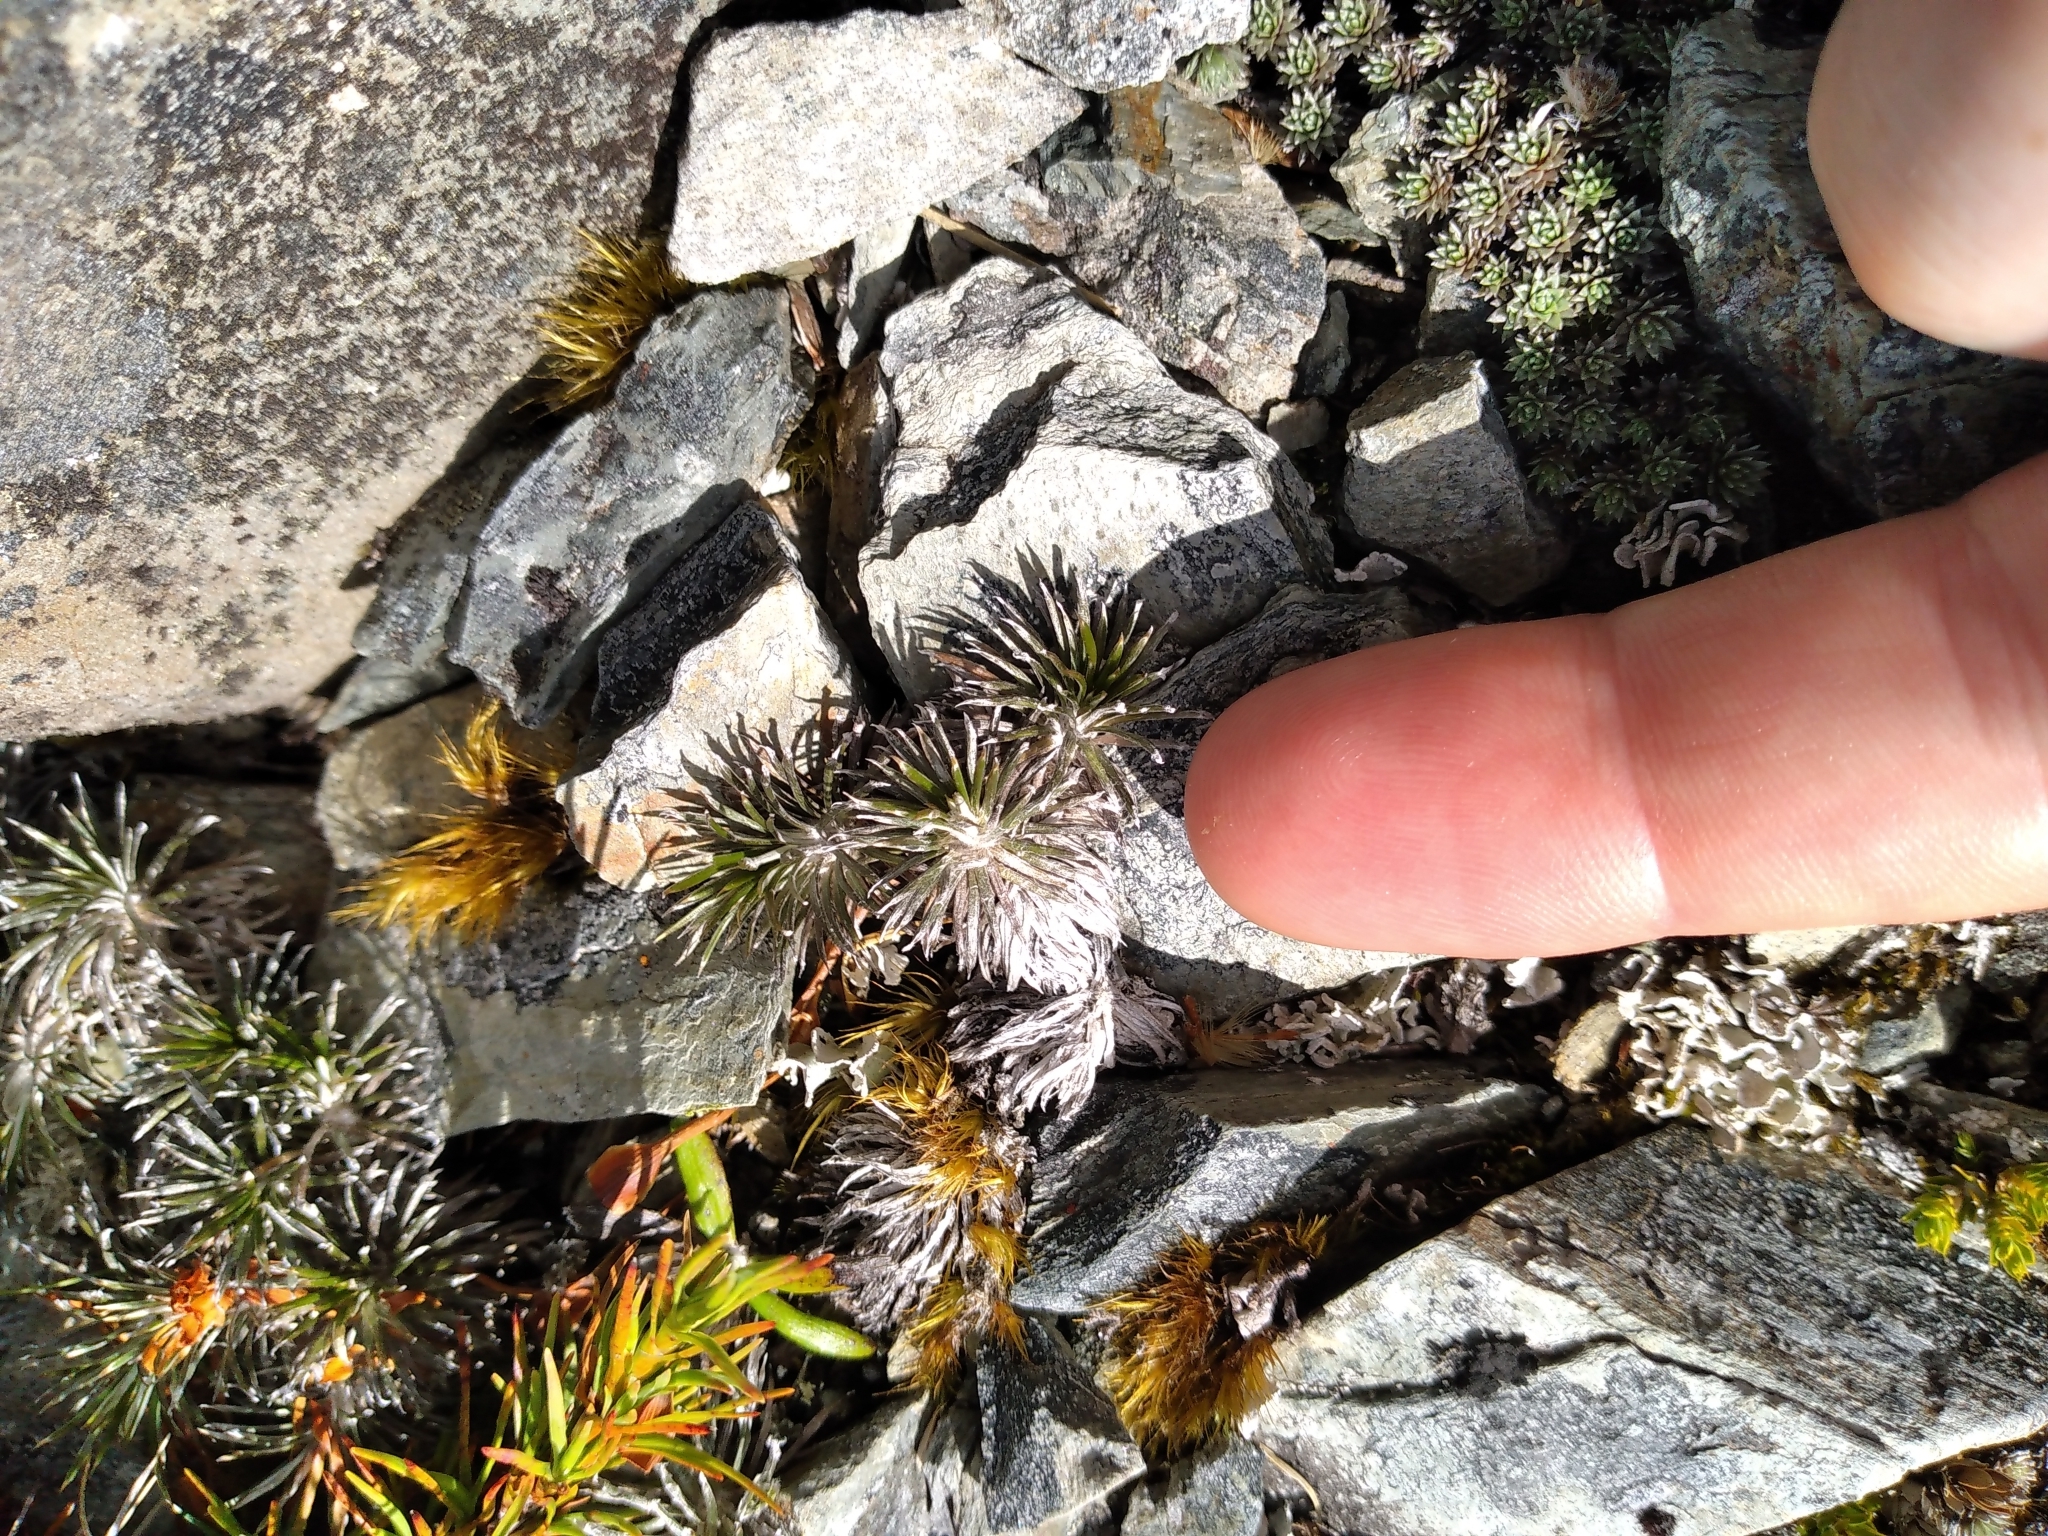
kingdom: Plantae
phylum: Tracheophyta
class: Magnoliopsida
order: Asterales
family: Asteraceae
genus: Celmisia
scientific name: Celmisia similis
